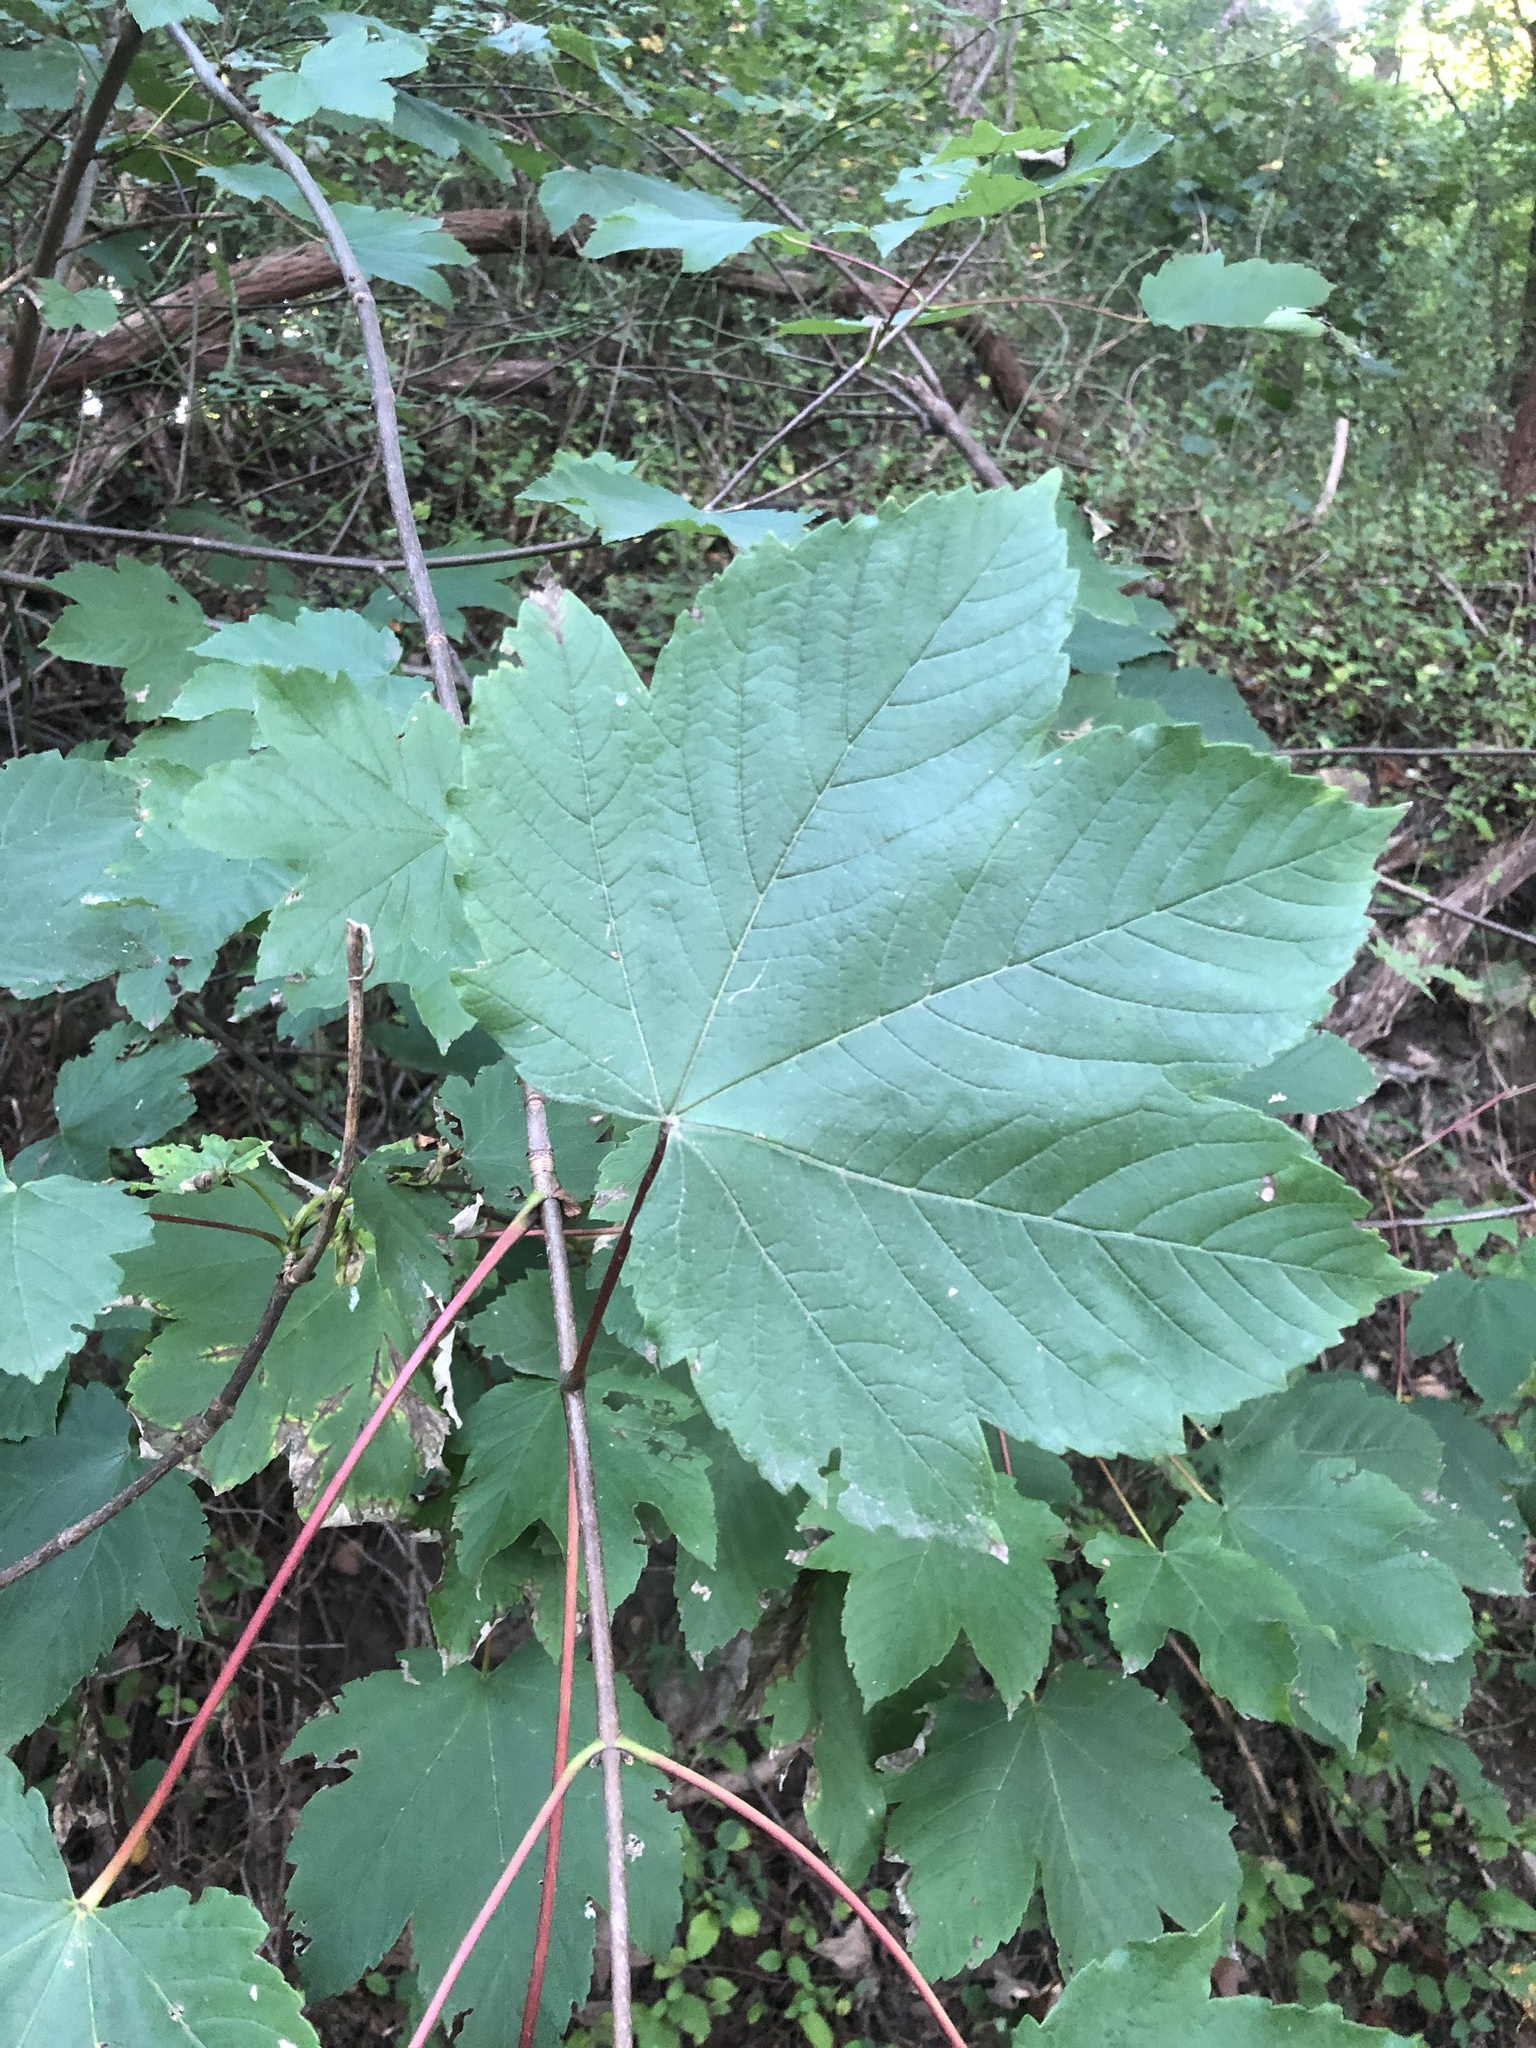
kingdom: Plantae
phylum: Tracheophyta
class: Magnoliopsida
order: Sapindales
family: Sapindaceae
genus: Acer
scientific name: Acer pseudoplatanus
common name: Sycamore
